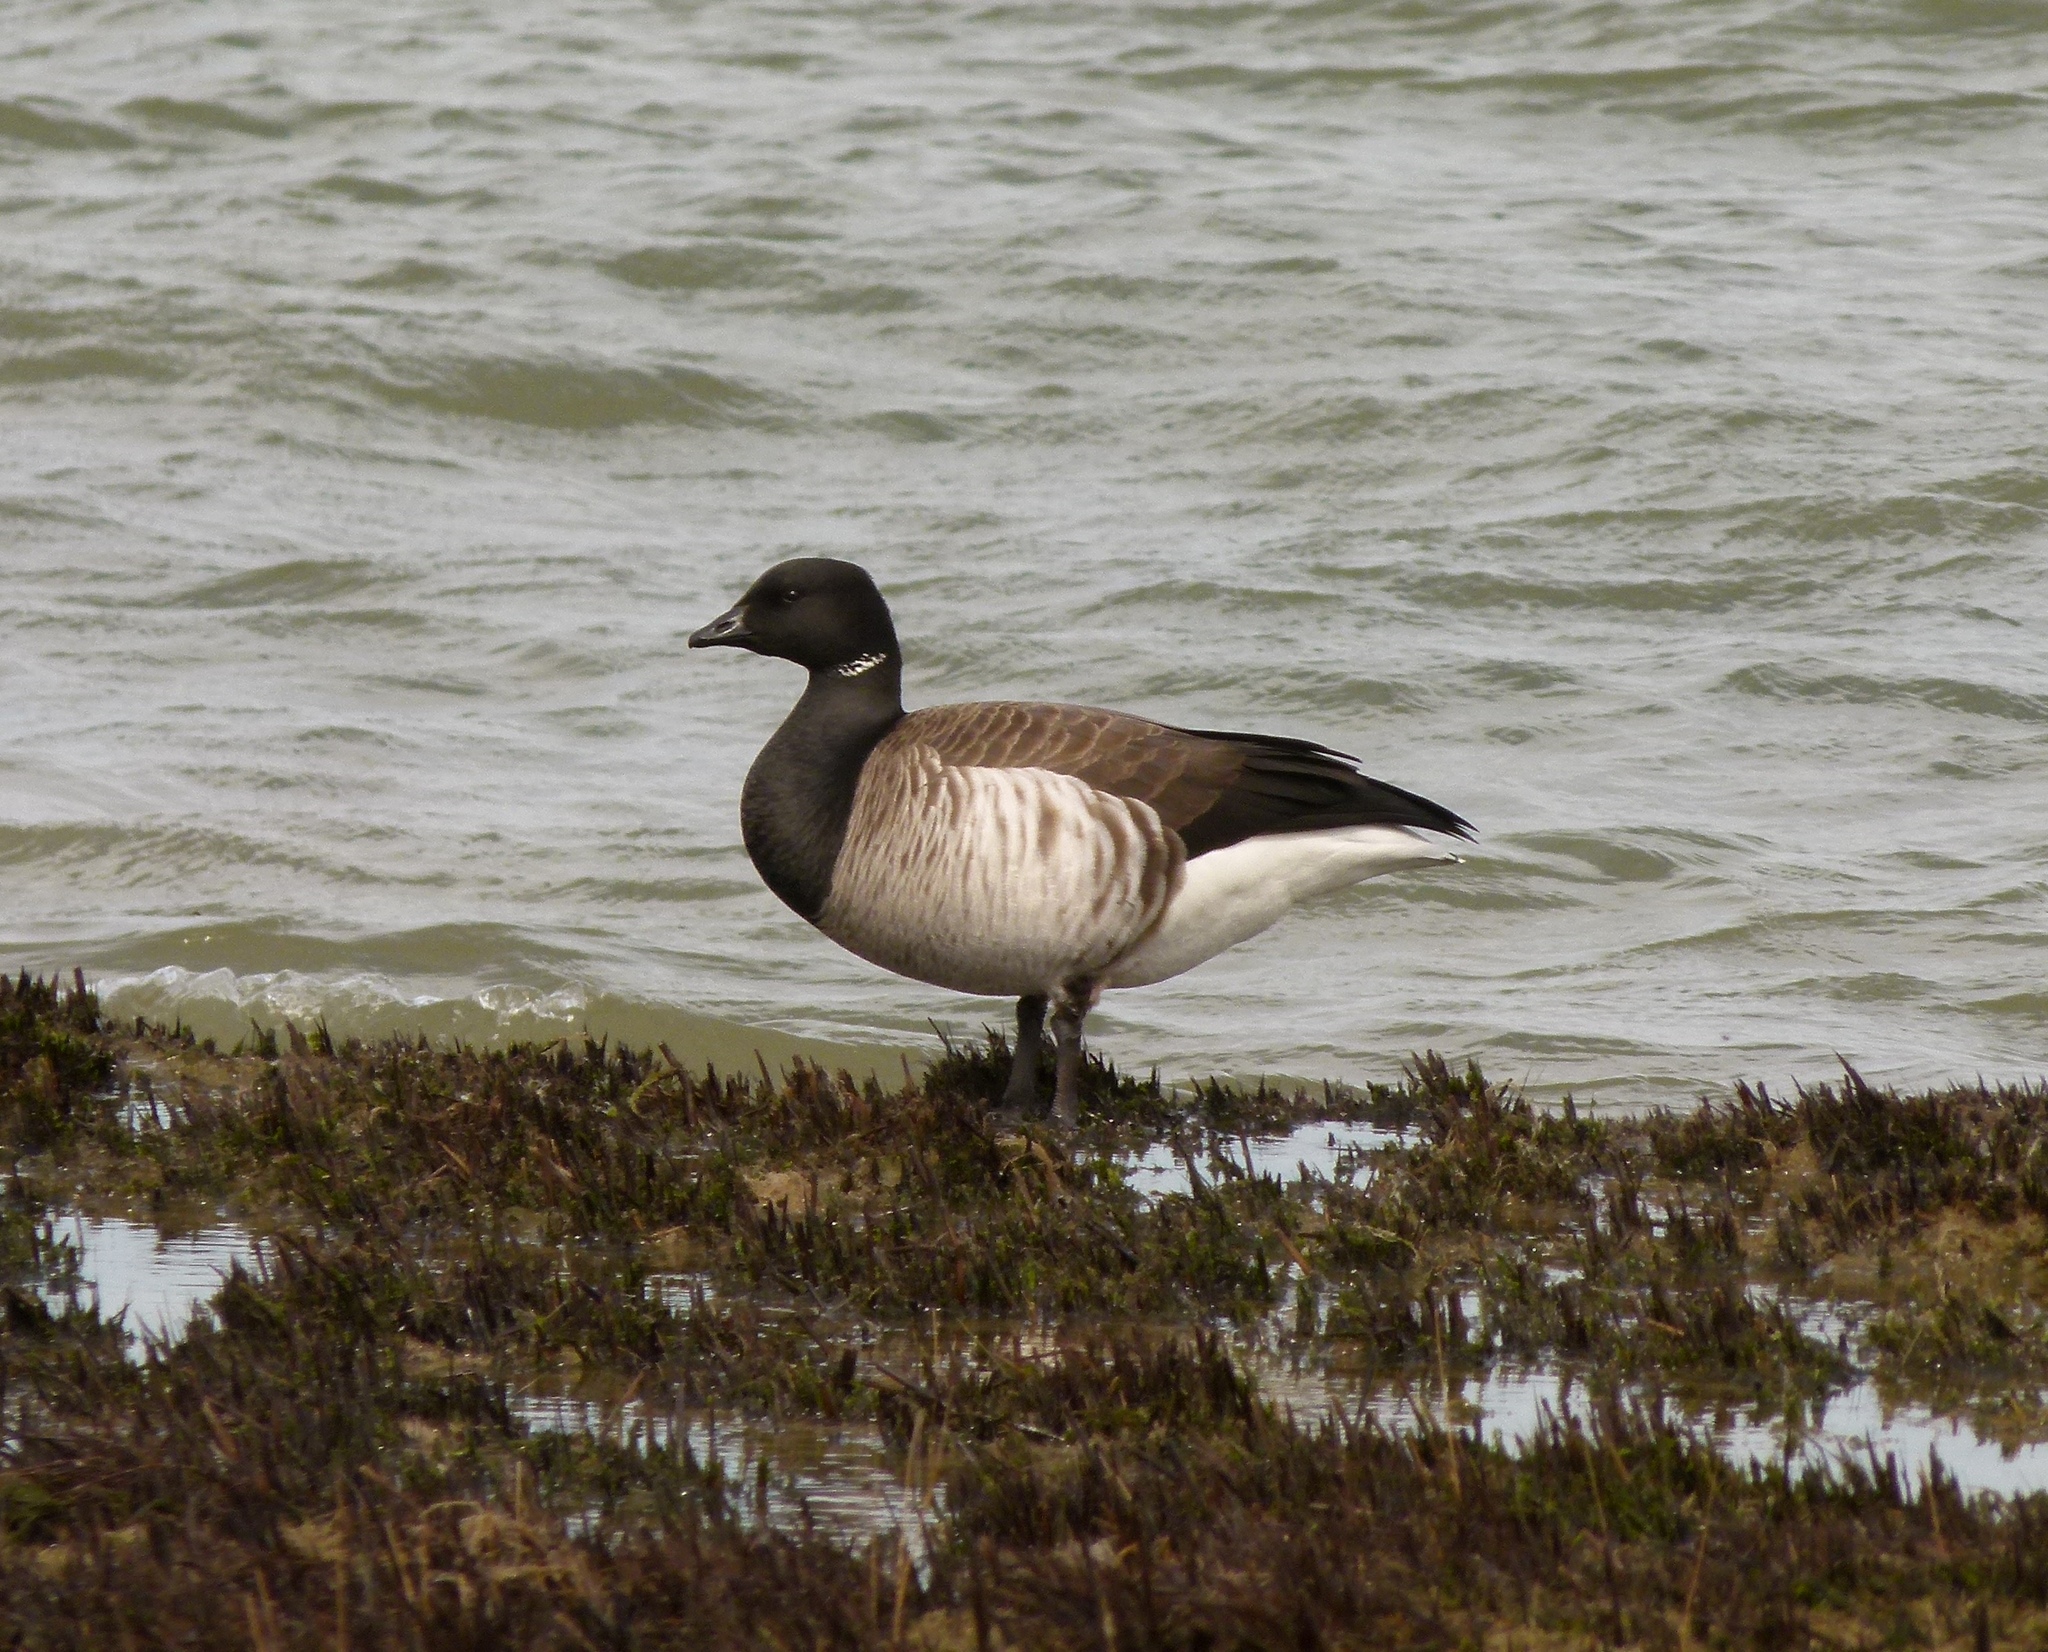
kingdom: Animalia
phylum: Chordata
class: Aves
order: Anseriformes
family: Anatidae
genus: Branta
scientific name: Branta bernicla
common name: Brant goose
